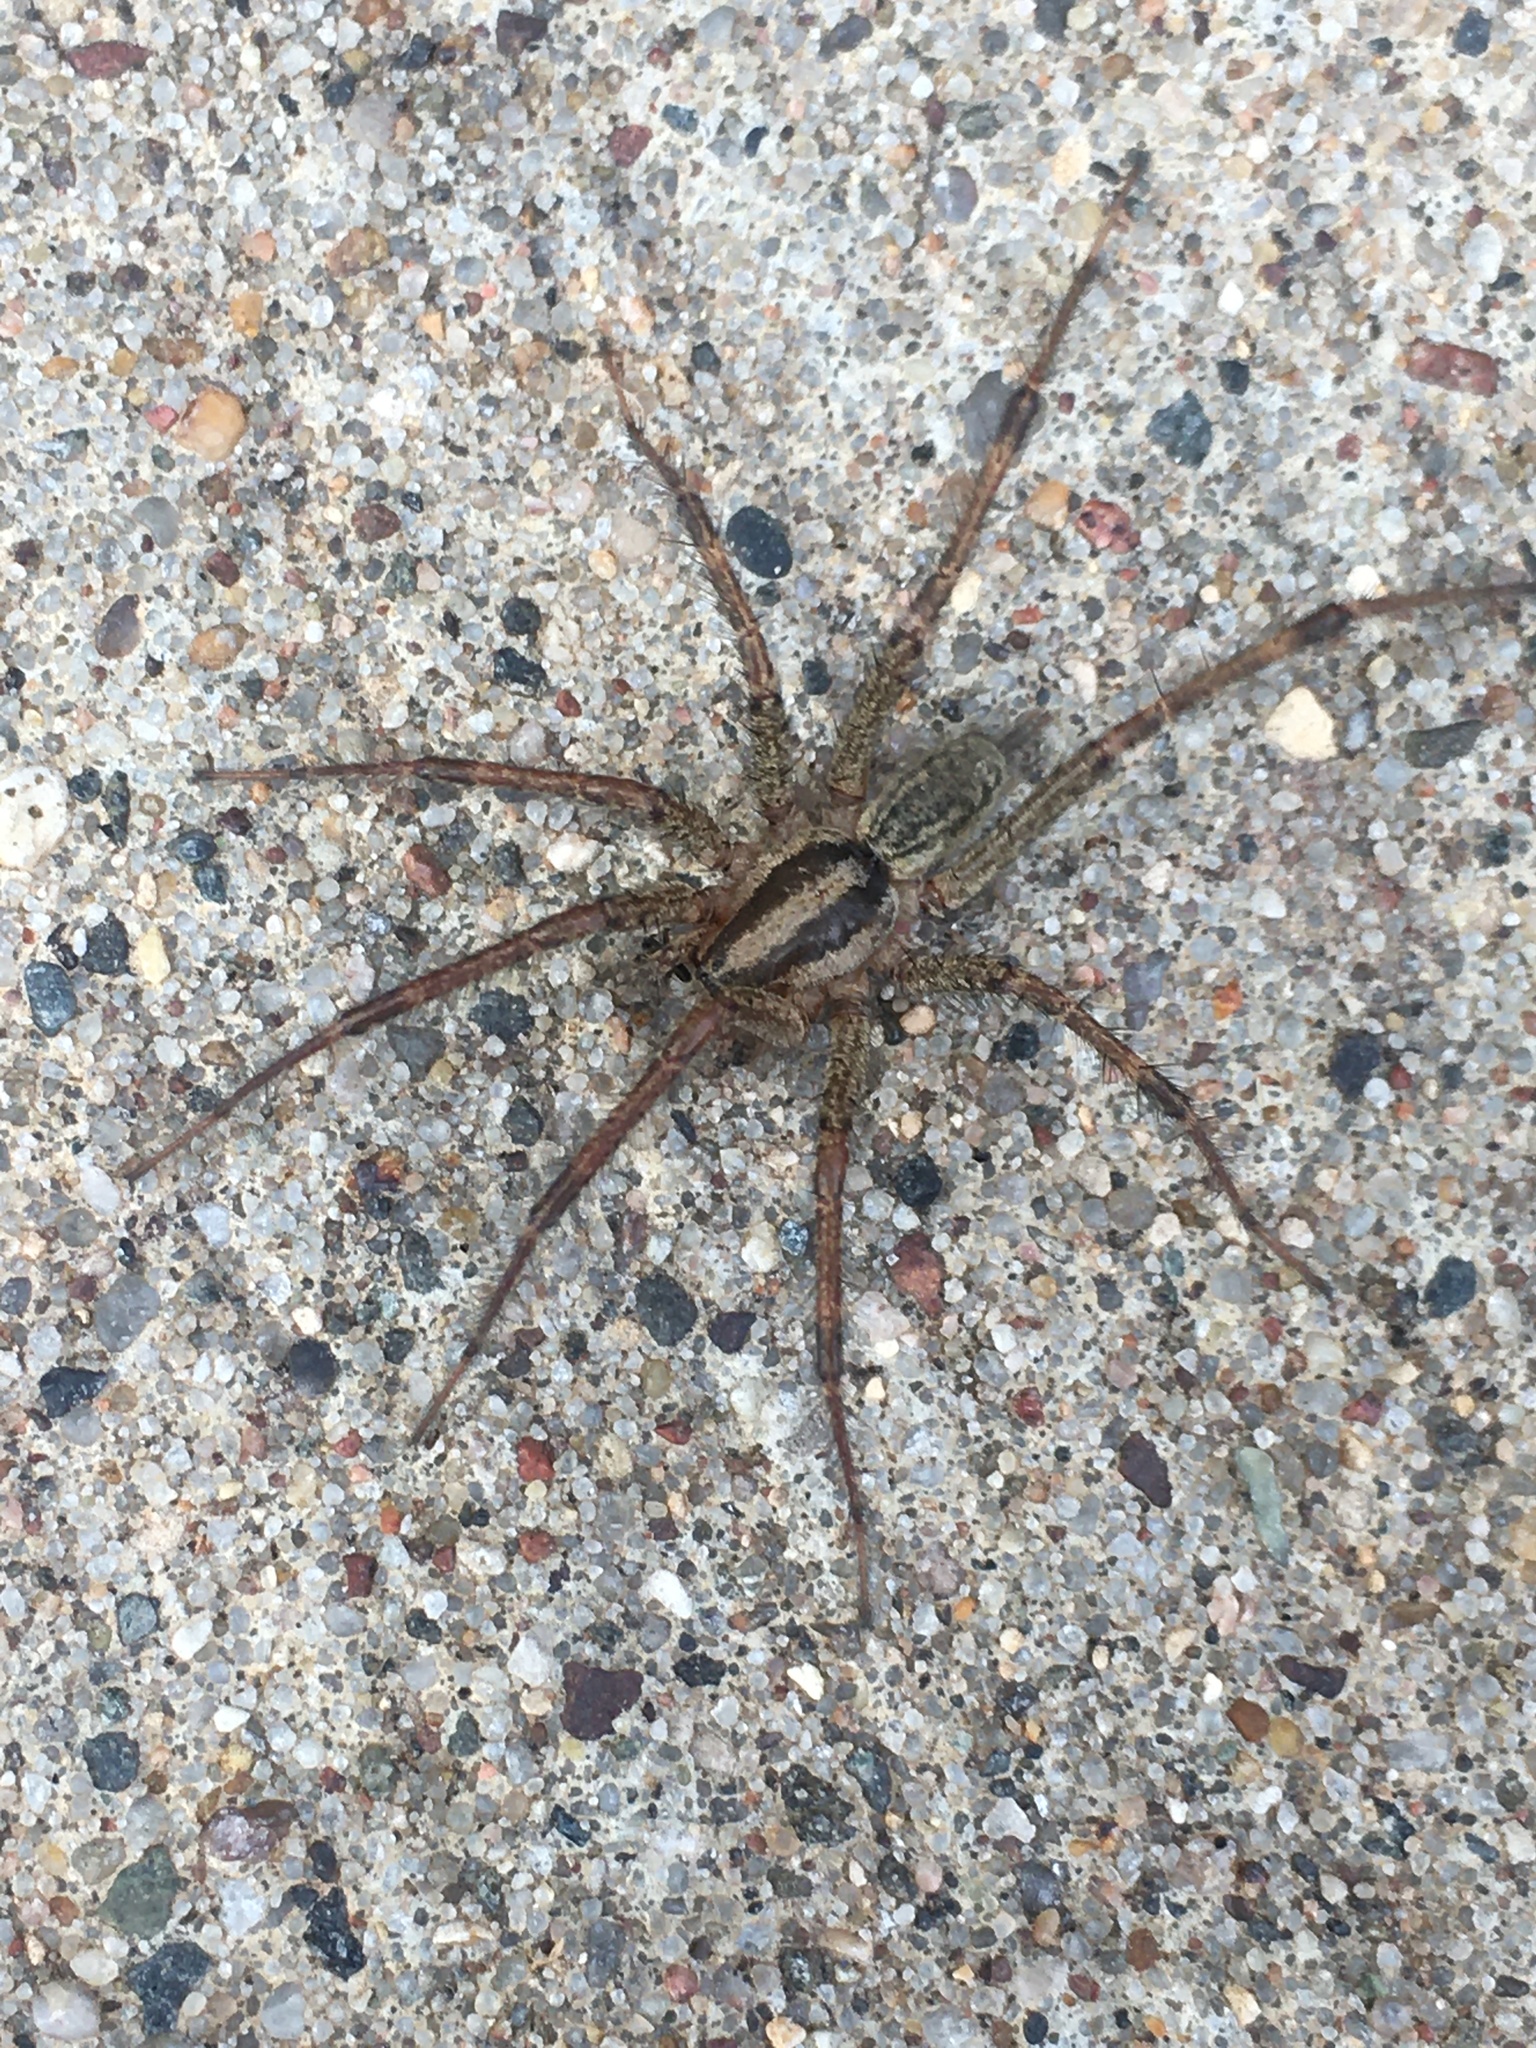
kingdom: Animalia
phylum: Arthropoda
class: Arachnida
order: Araneae
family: Agelenidae
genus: Agelenopsis
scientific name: Agelenopsis potteri
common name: Potter's grass spider
